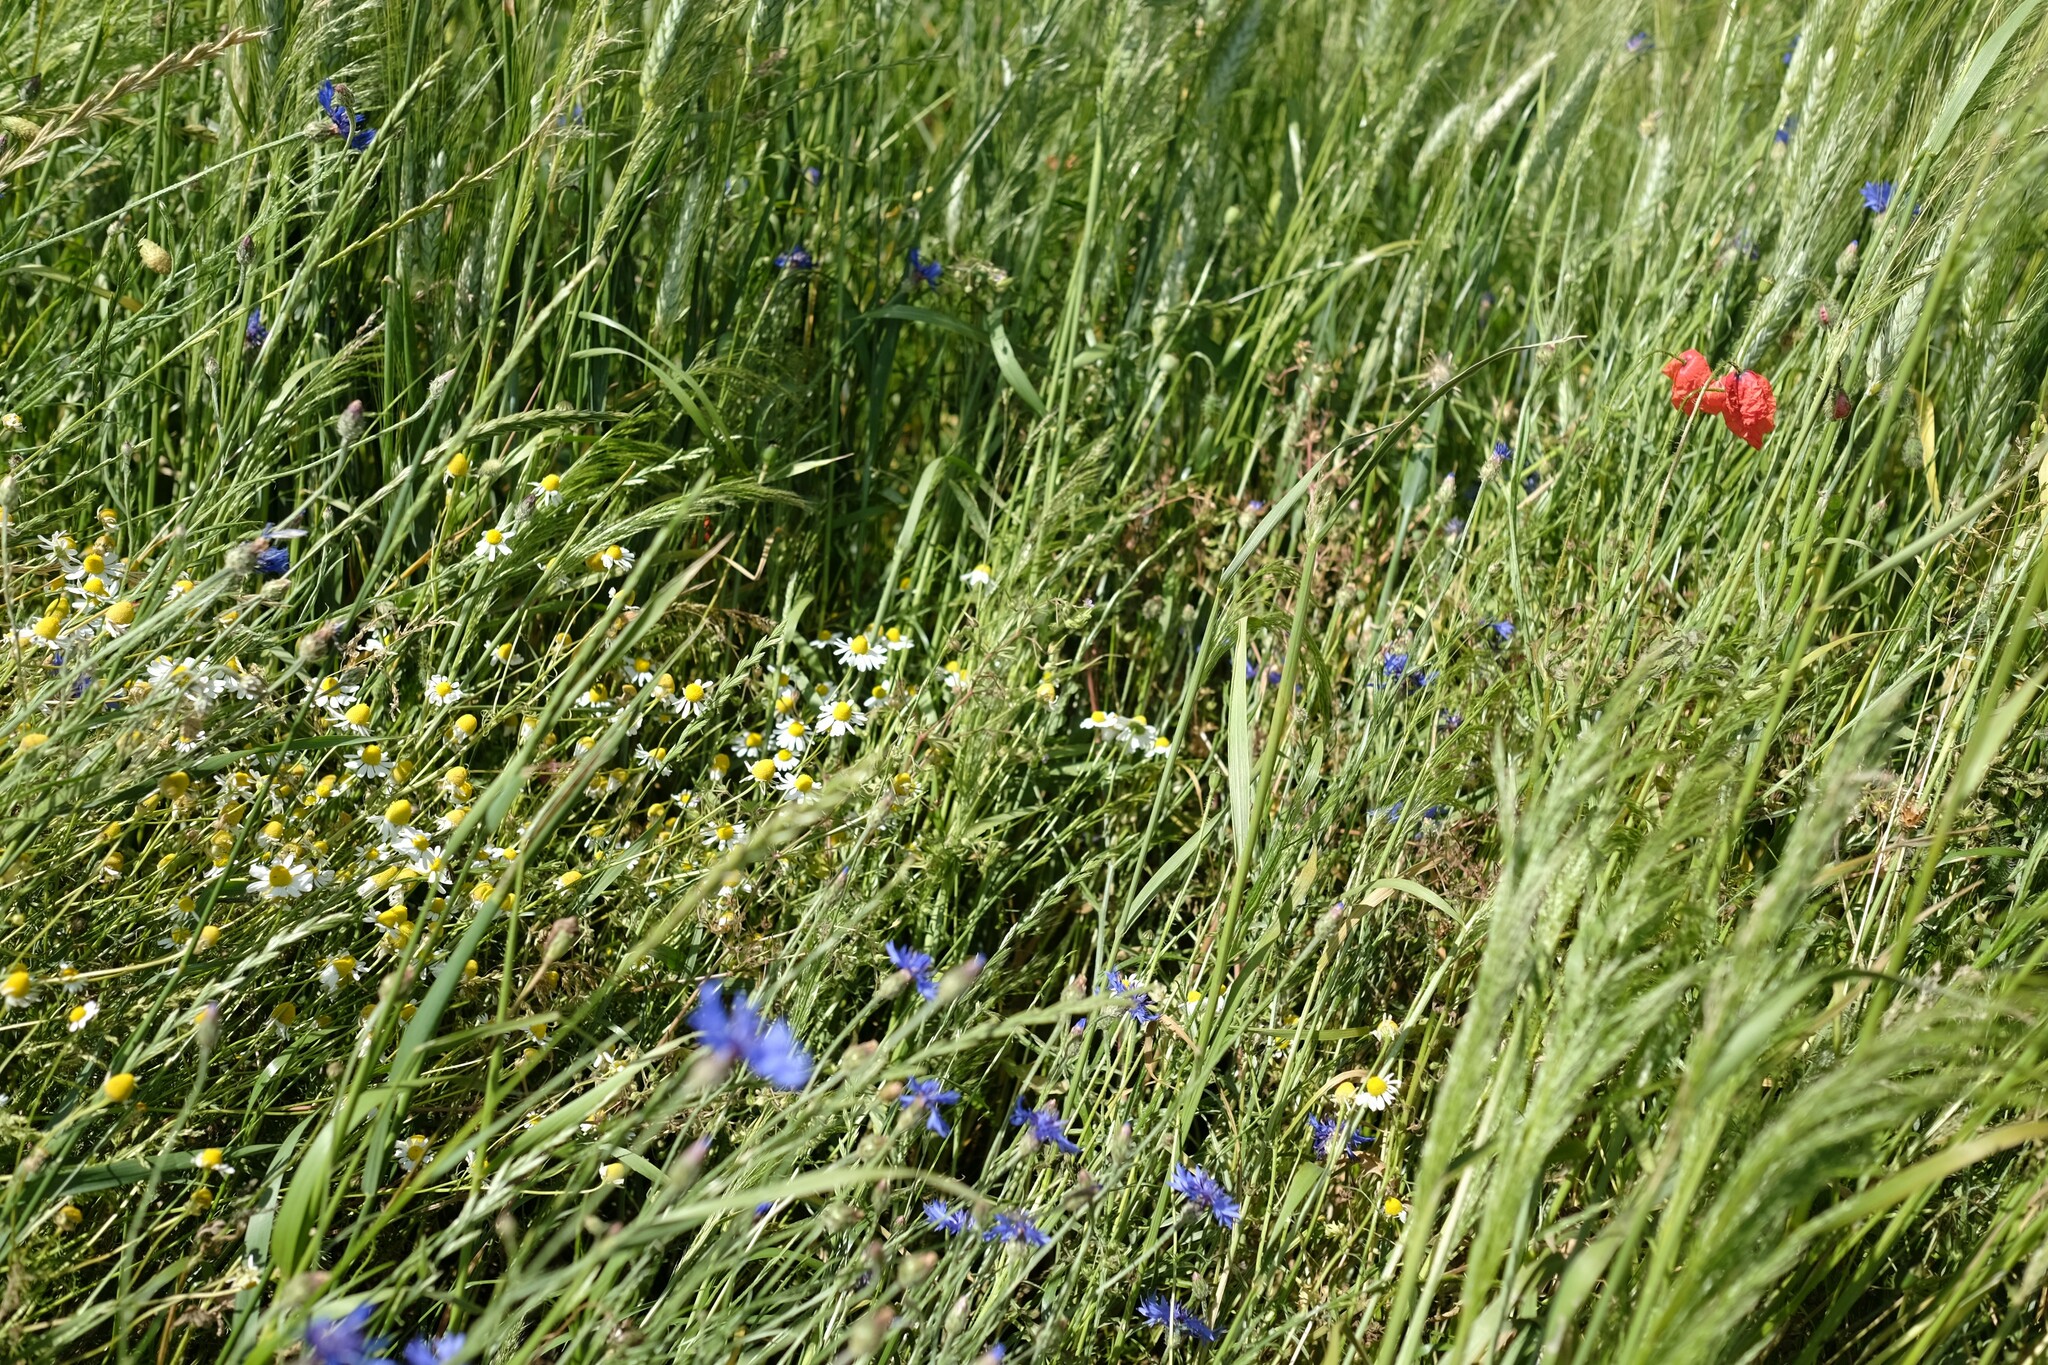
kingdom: Plantae
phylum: Tracheophyta
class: Magnoliopsida
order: Asterales
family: Asteraceae
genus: Matricaria
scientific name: Matricaria chamomilla
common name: Scented mayweed
